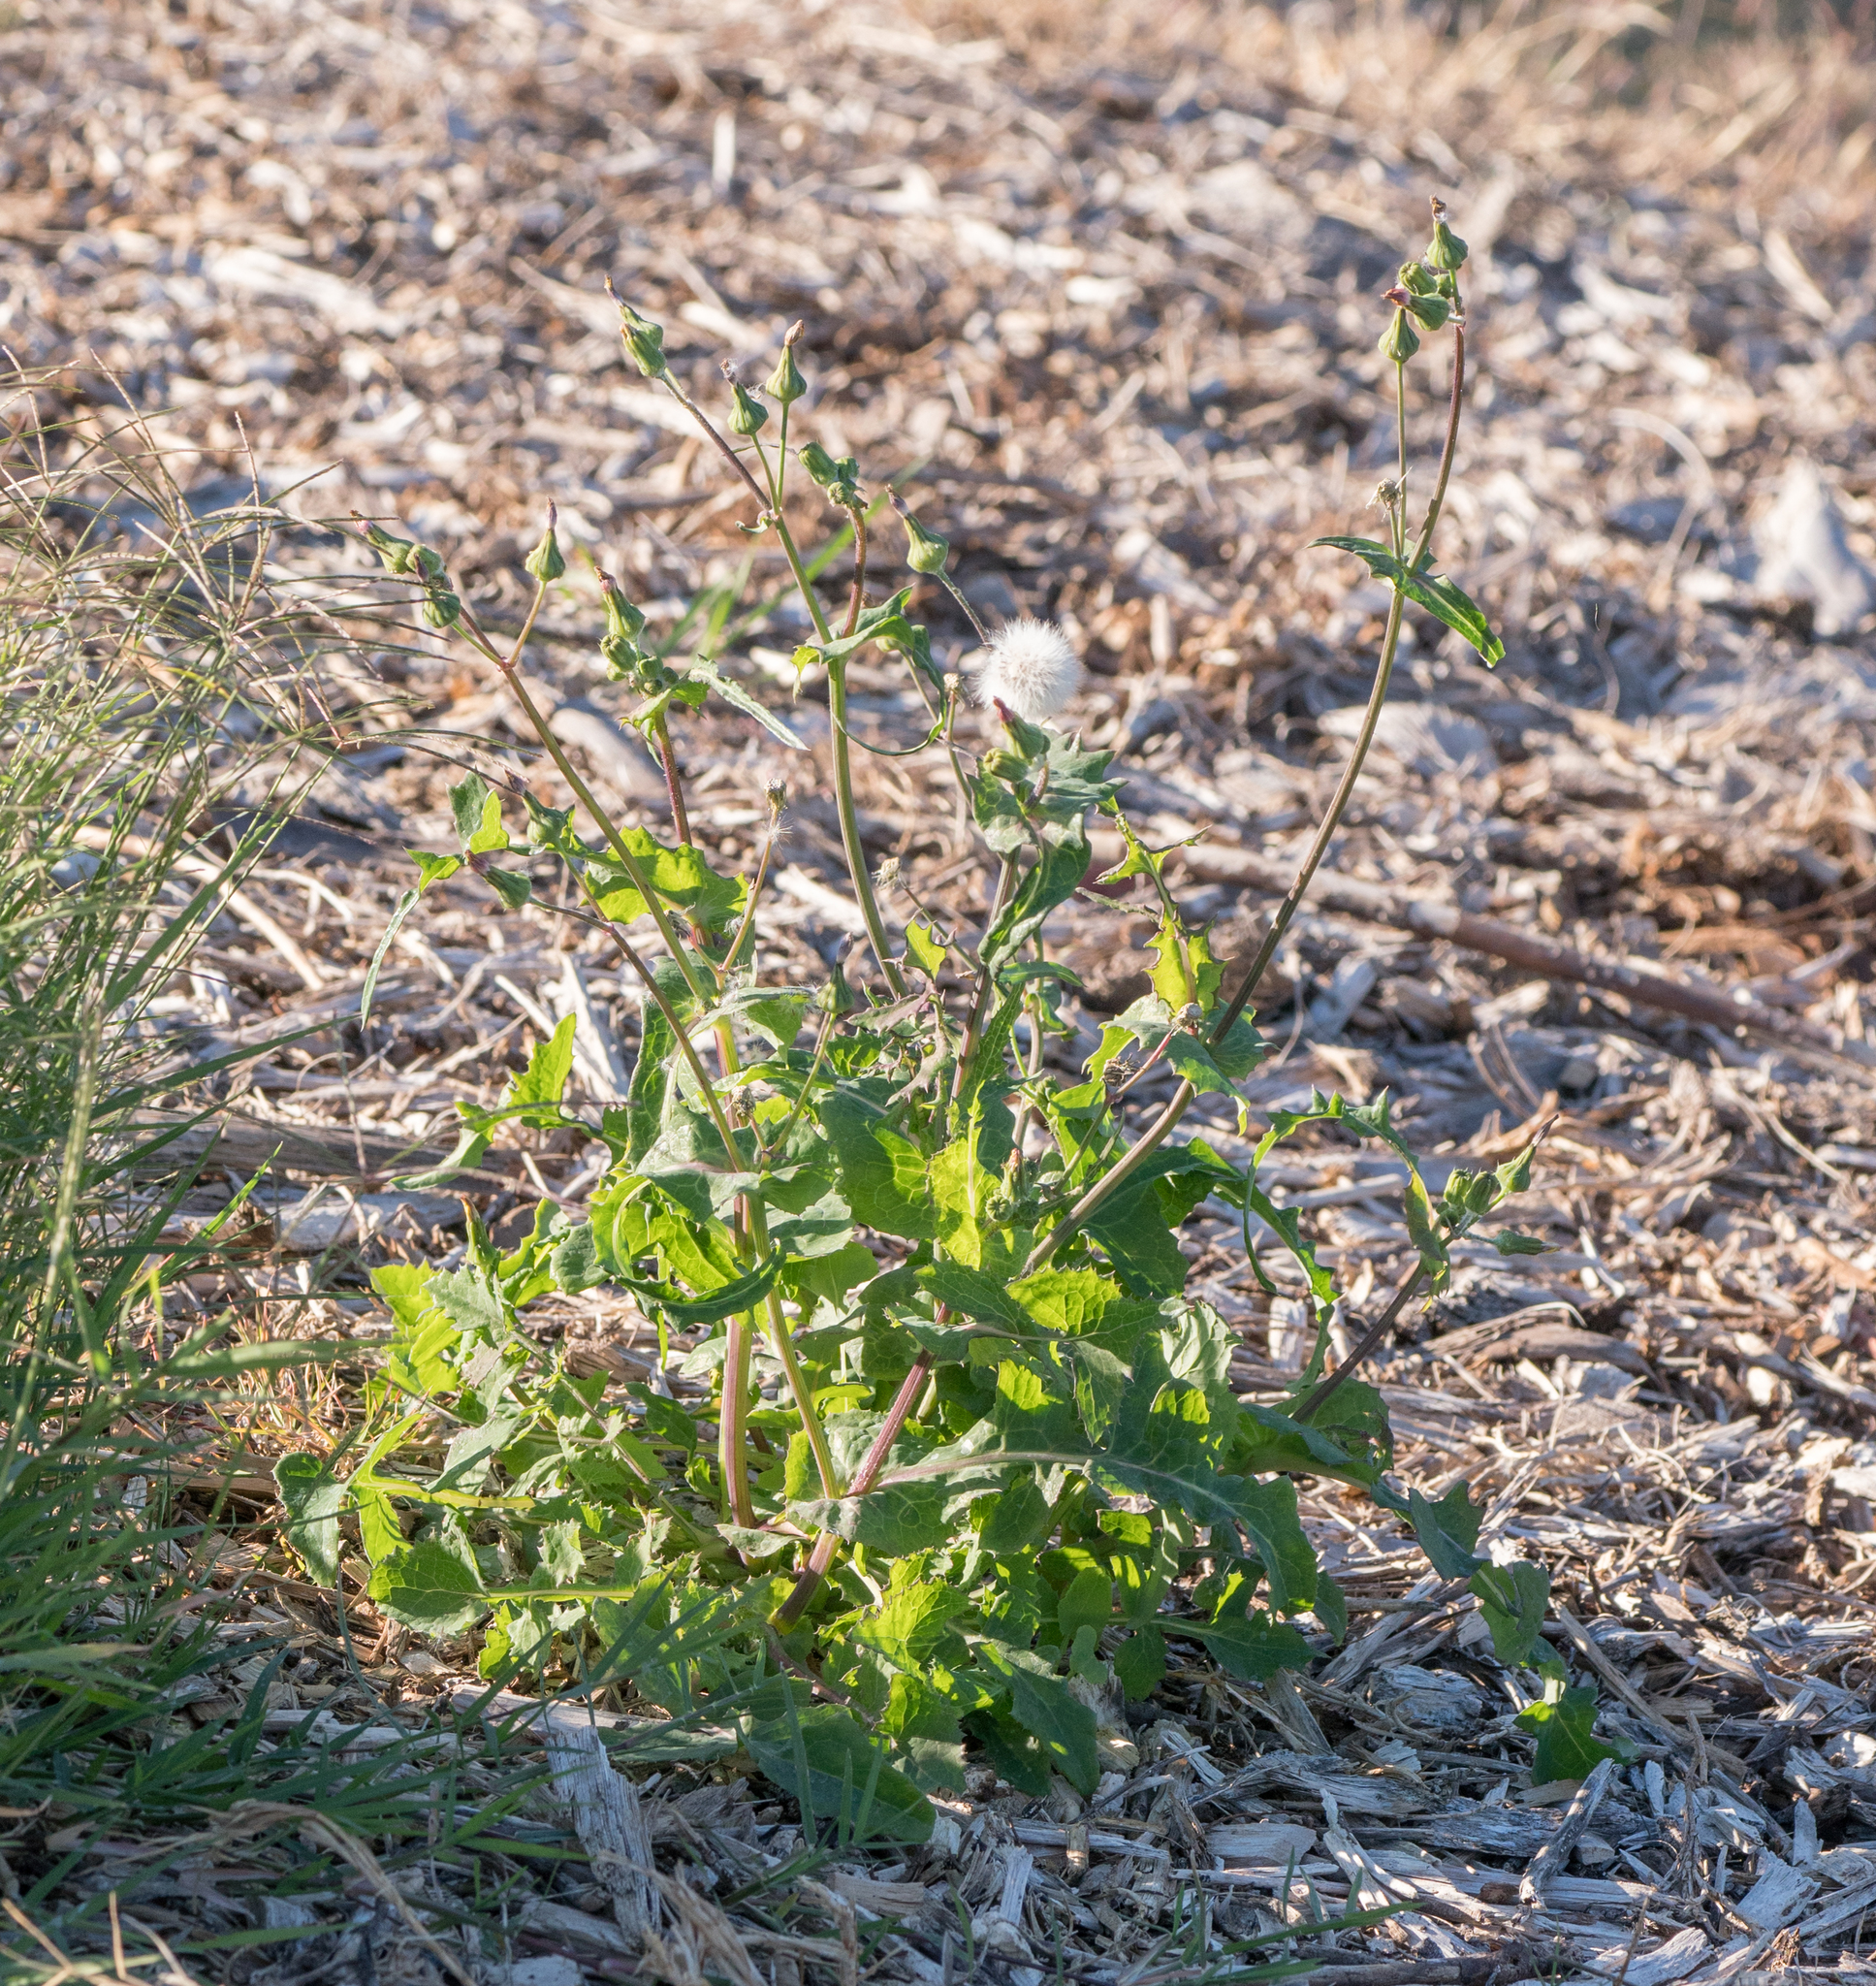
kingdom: Plantae
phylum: Tracheophyta
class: Magnoliopsida
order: Asterales
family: Asteraceae
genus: Sonchus
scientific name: Sonchus oleraceus
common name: Common sowthistle
